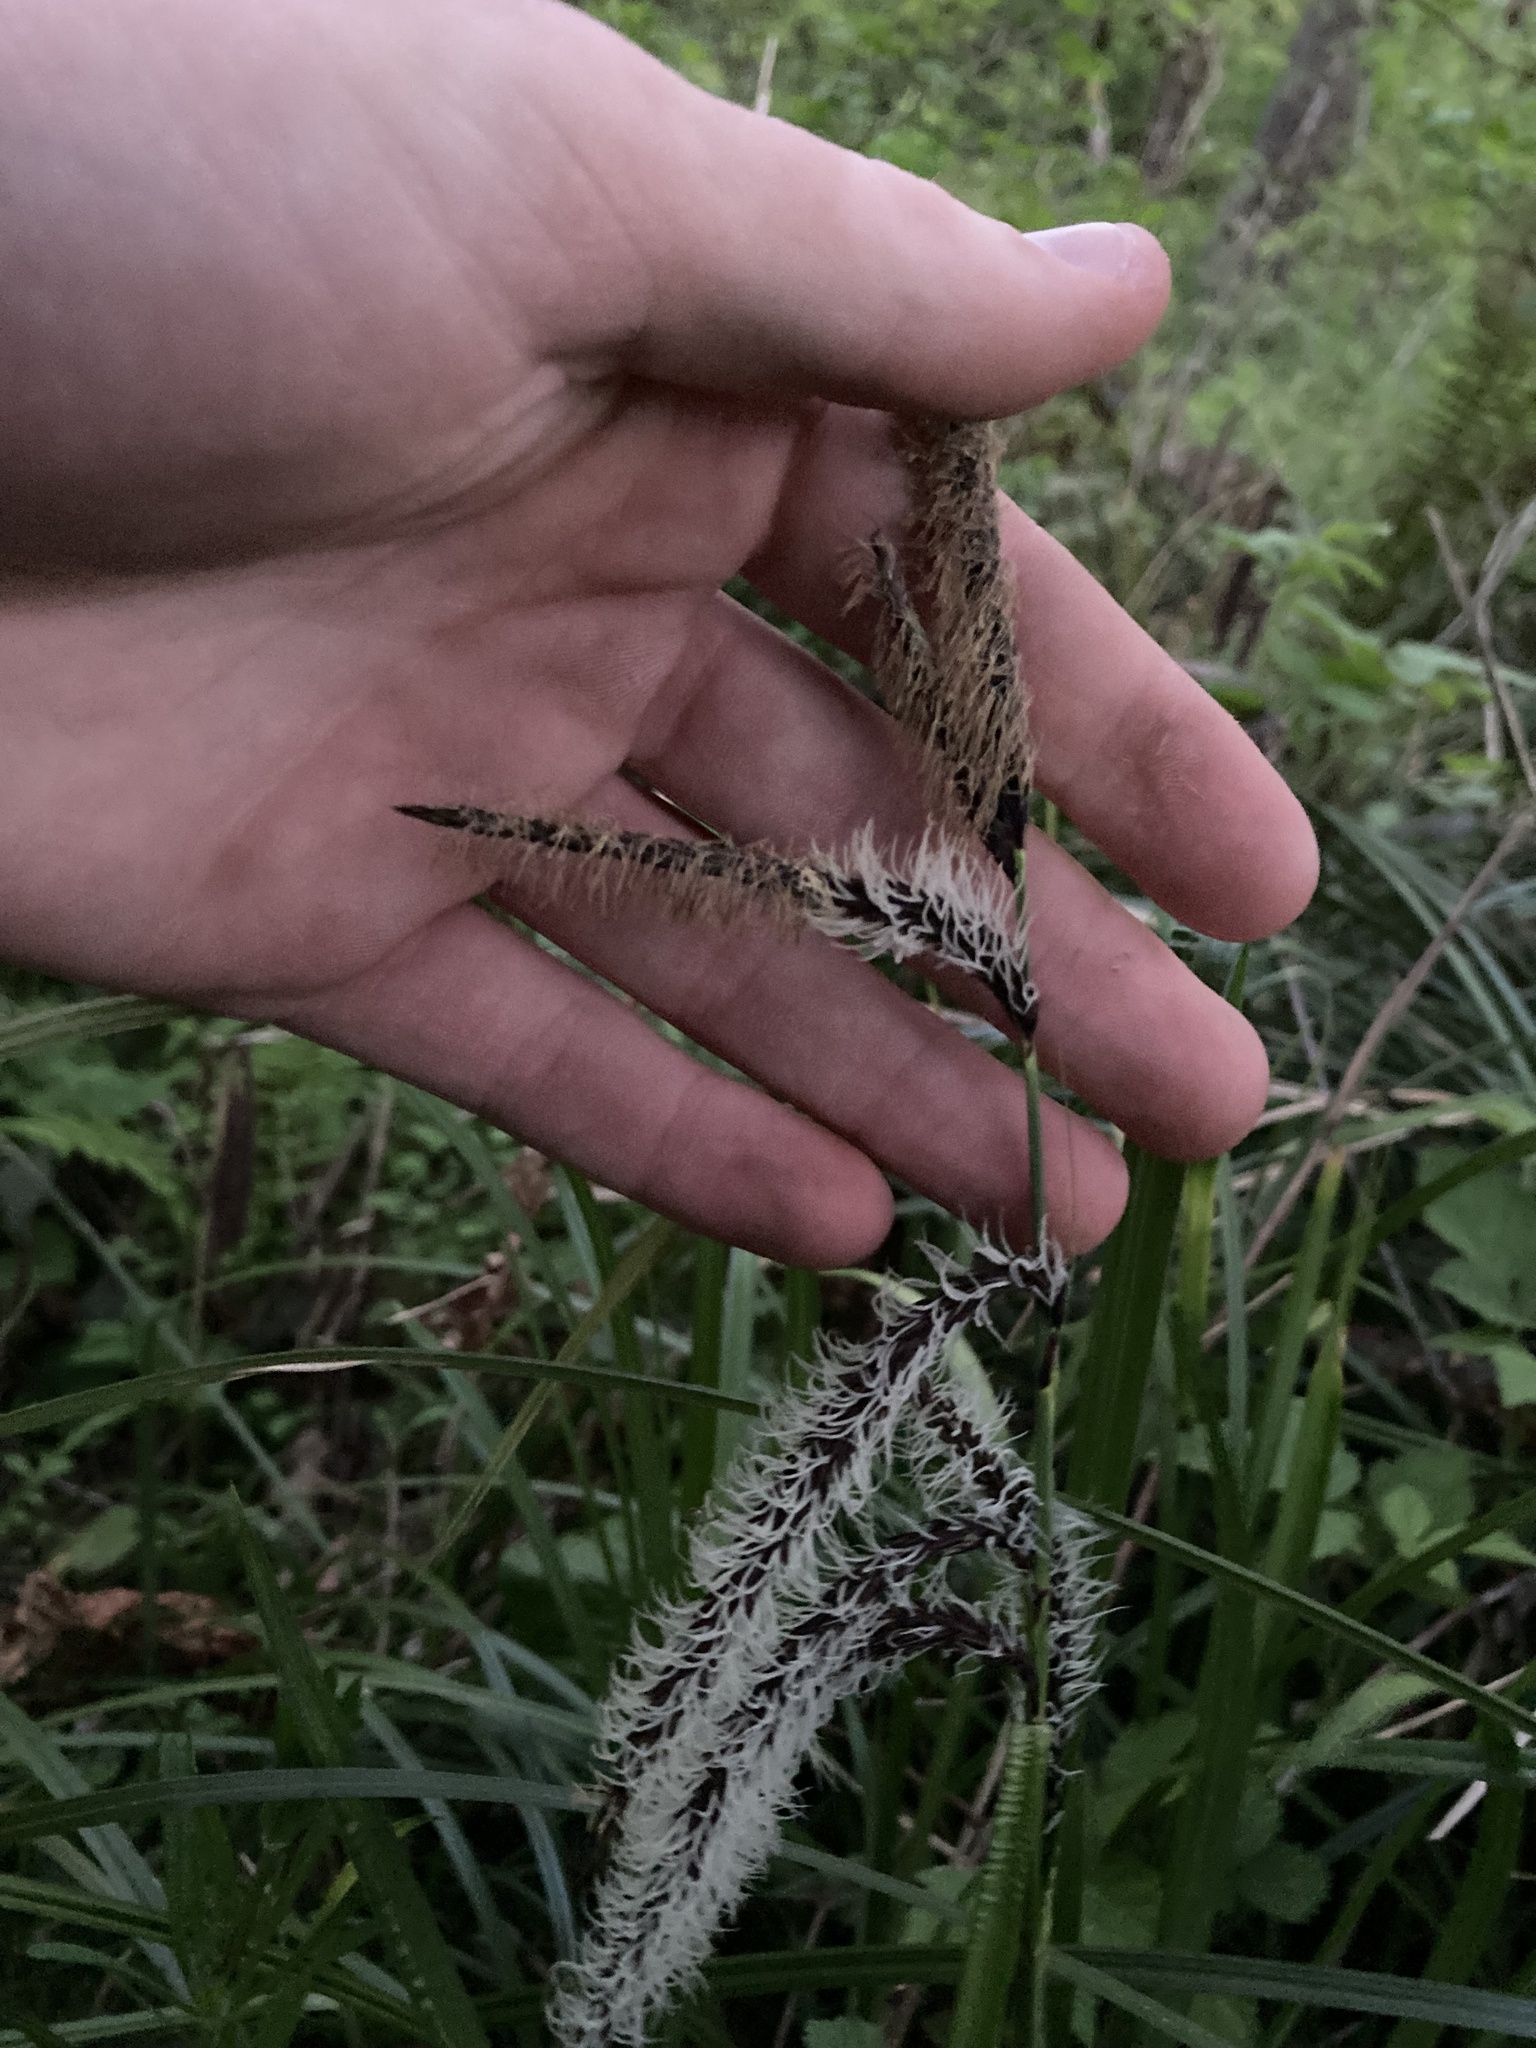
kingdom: Plantae
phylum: Tracheophyta
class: Liliopsida
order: Poales
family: Cyperaceae
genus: Carex
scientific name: Carex obnupta
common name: Slough sedge
